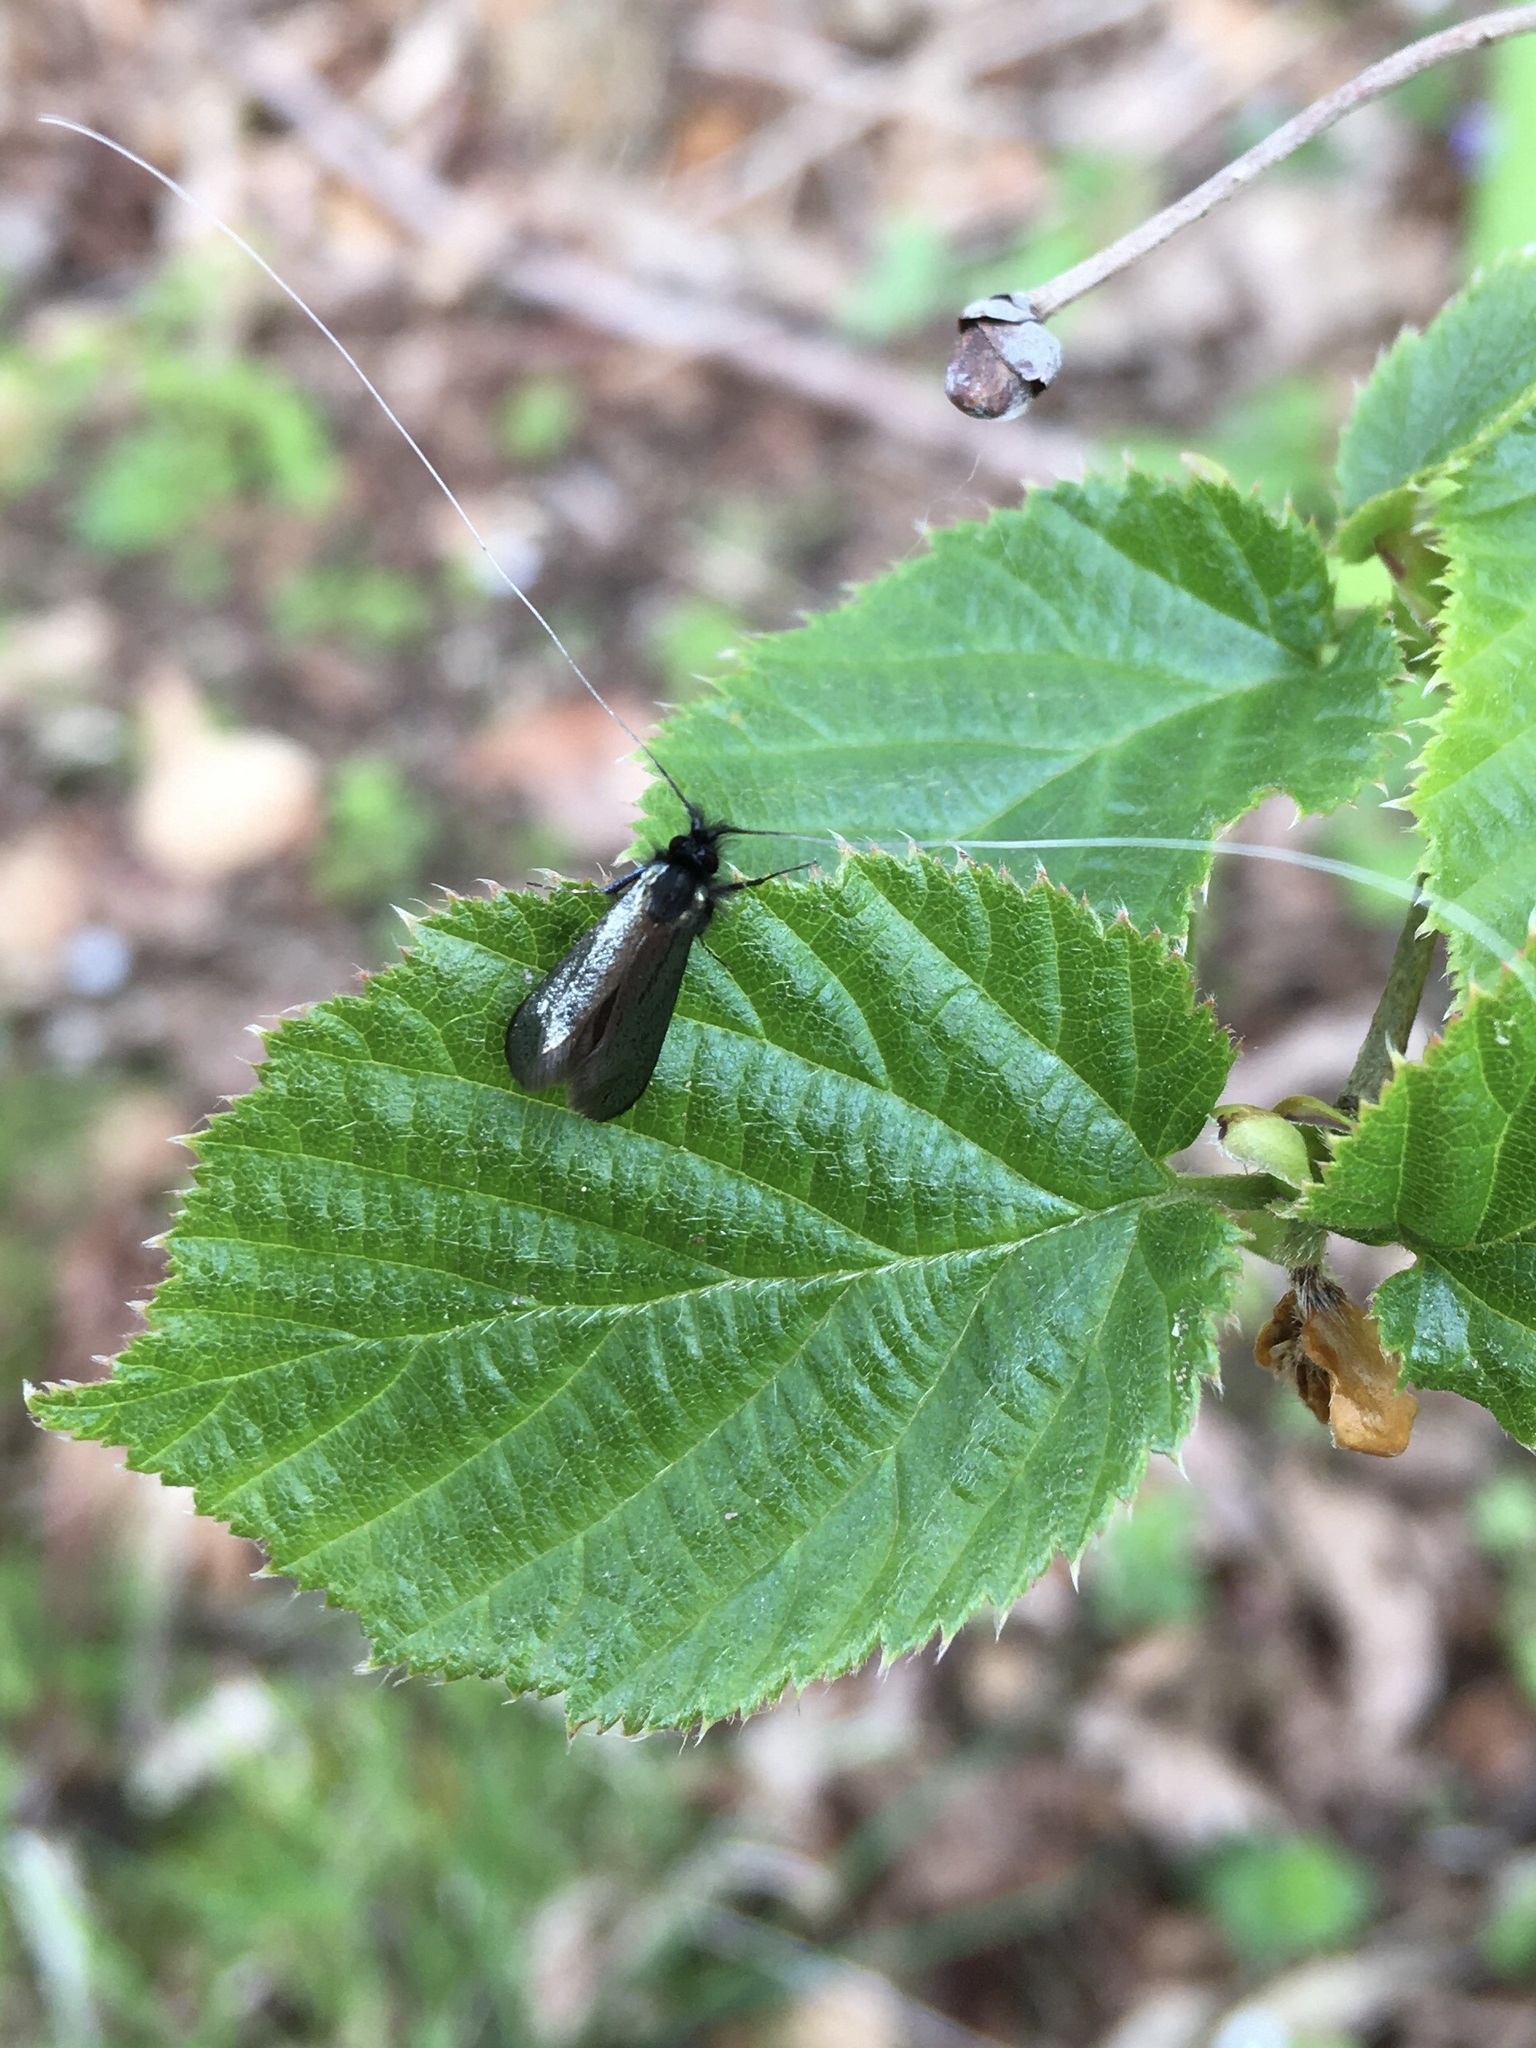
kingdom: Animalia
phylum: Arthropoda
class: Insecta
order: Lepidoptera
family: Adelidae
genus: Adela
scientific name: Adela viridella
